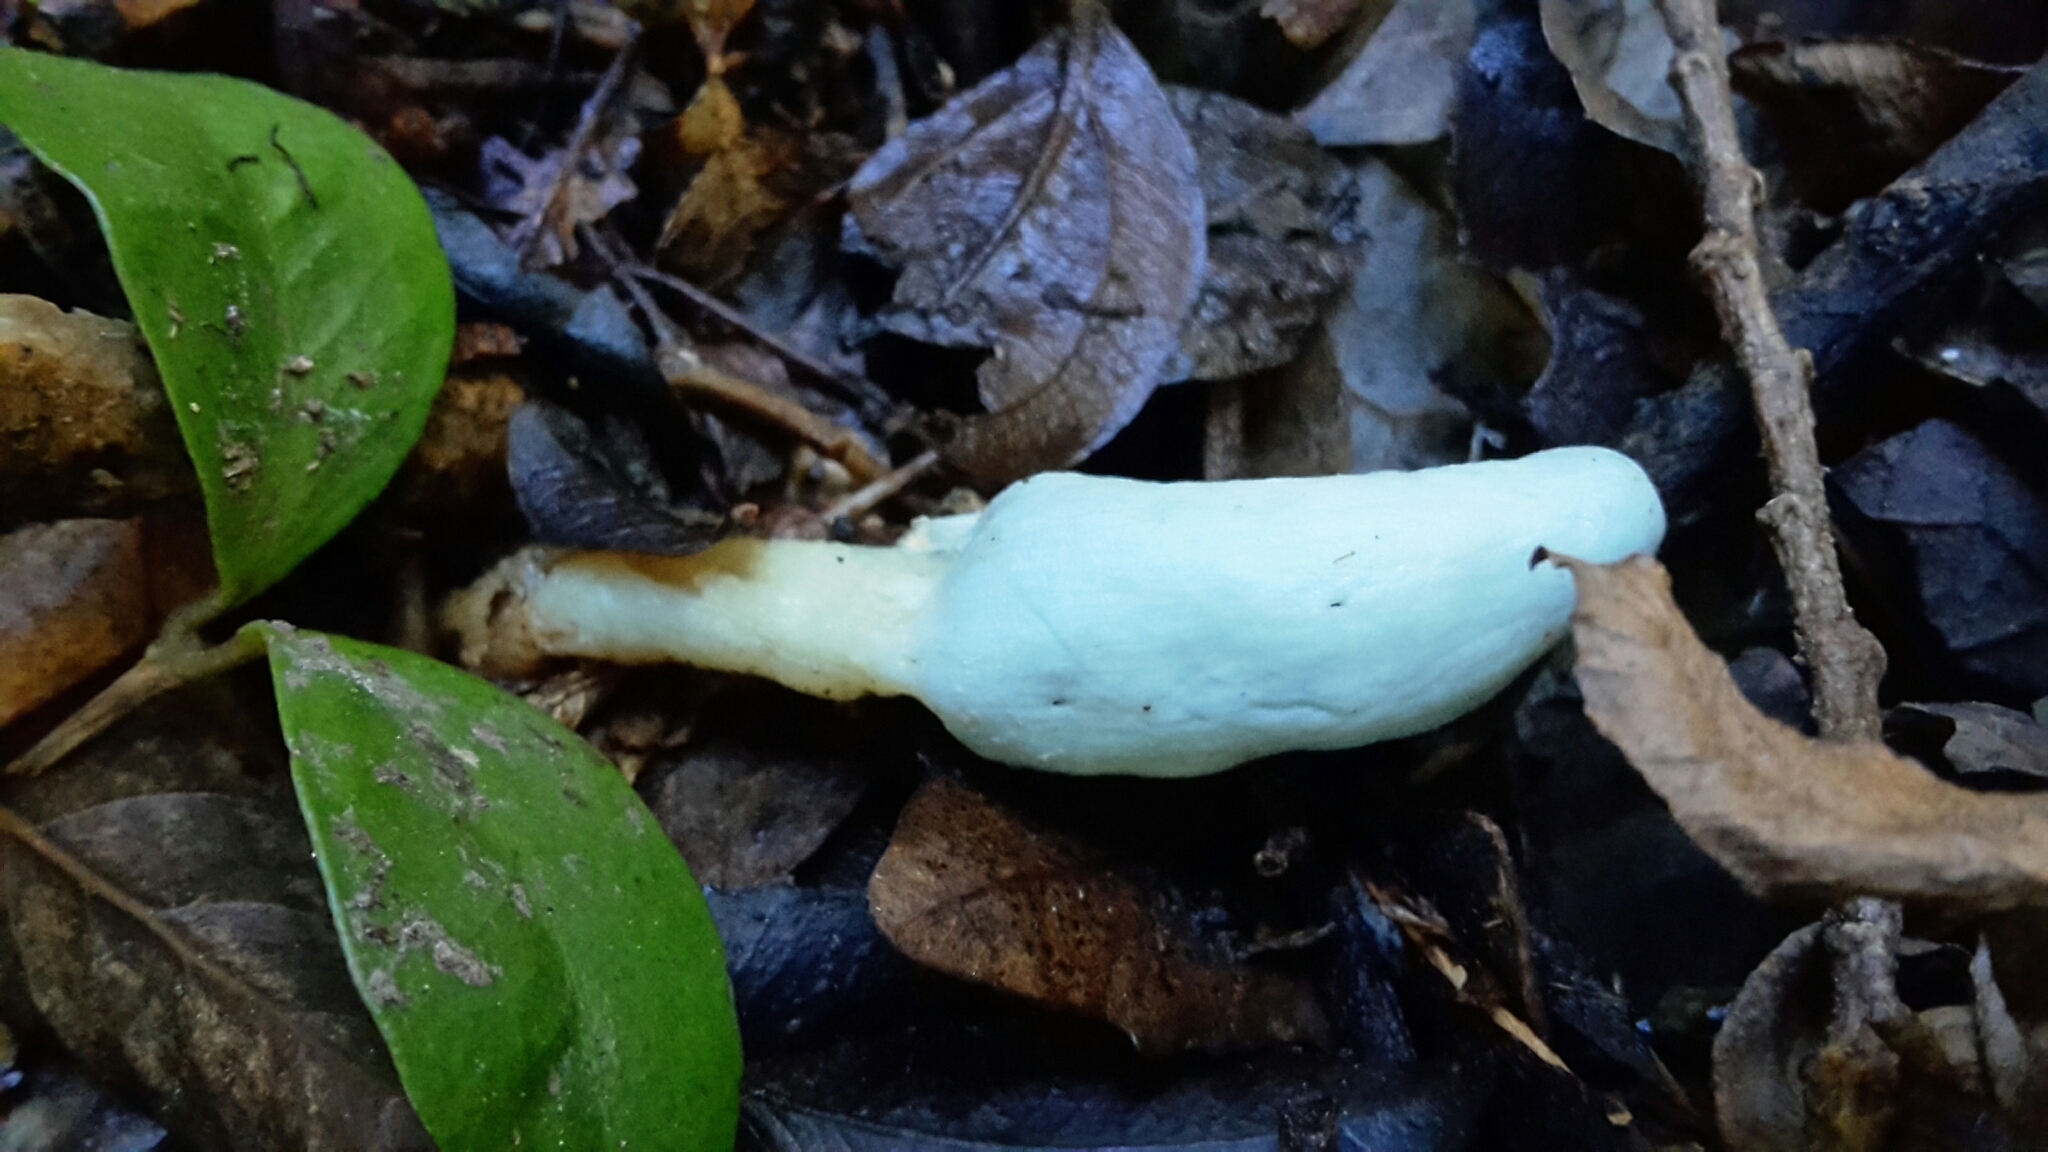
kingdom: Fungi
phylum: Basidiomycota
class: Agaricomycetes
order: Agaricales
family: Agaricaceae
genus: Clavogaster
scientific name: Clavogaster virescens
